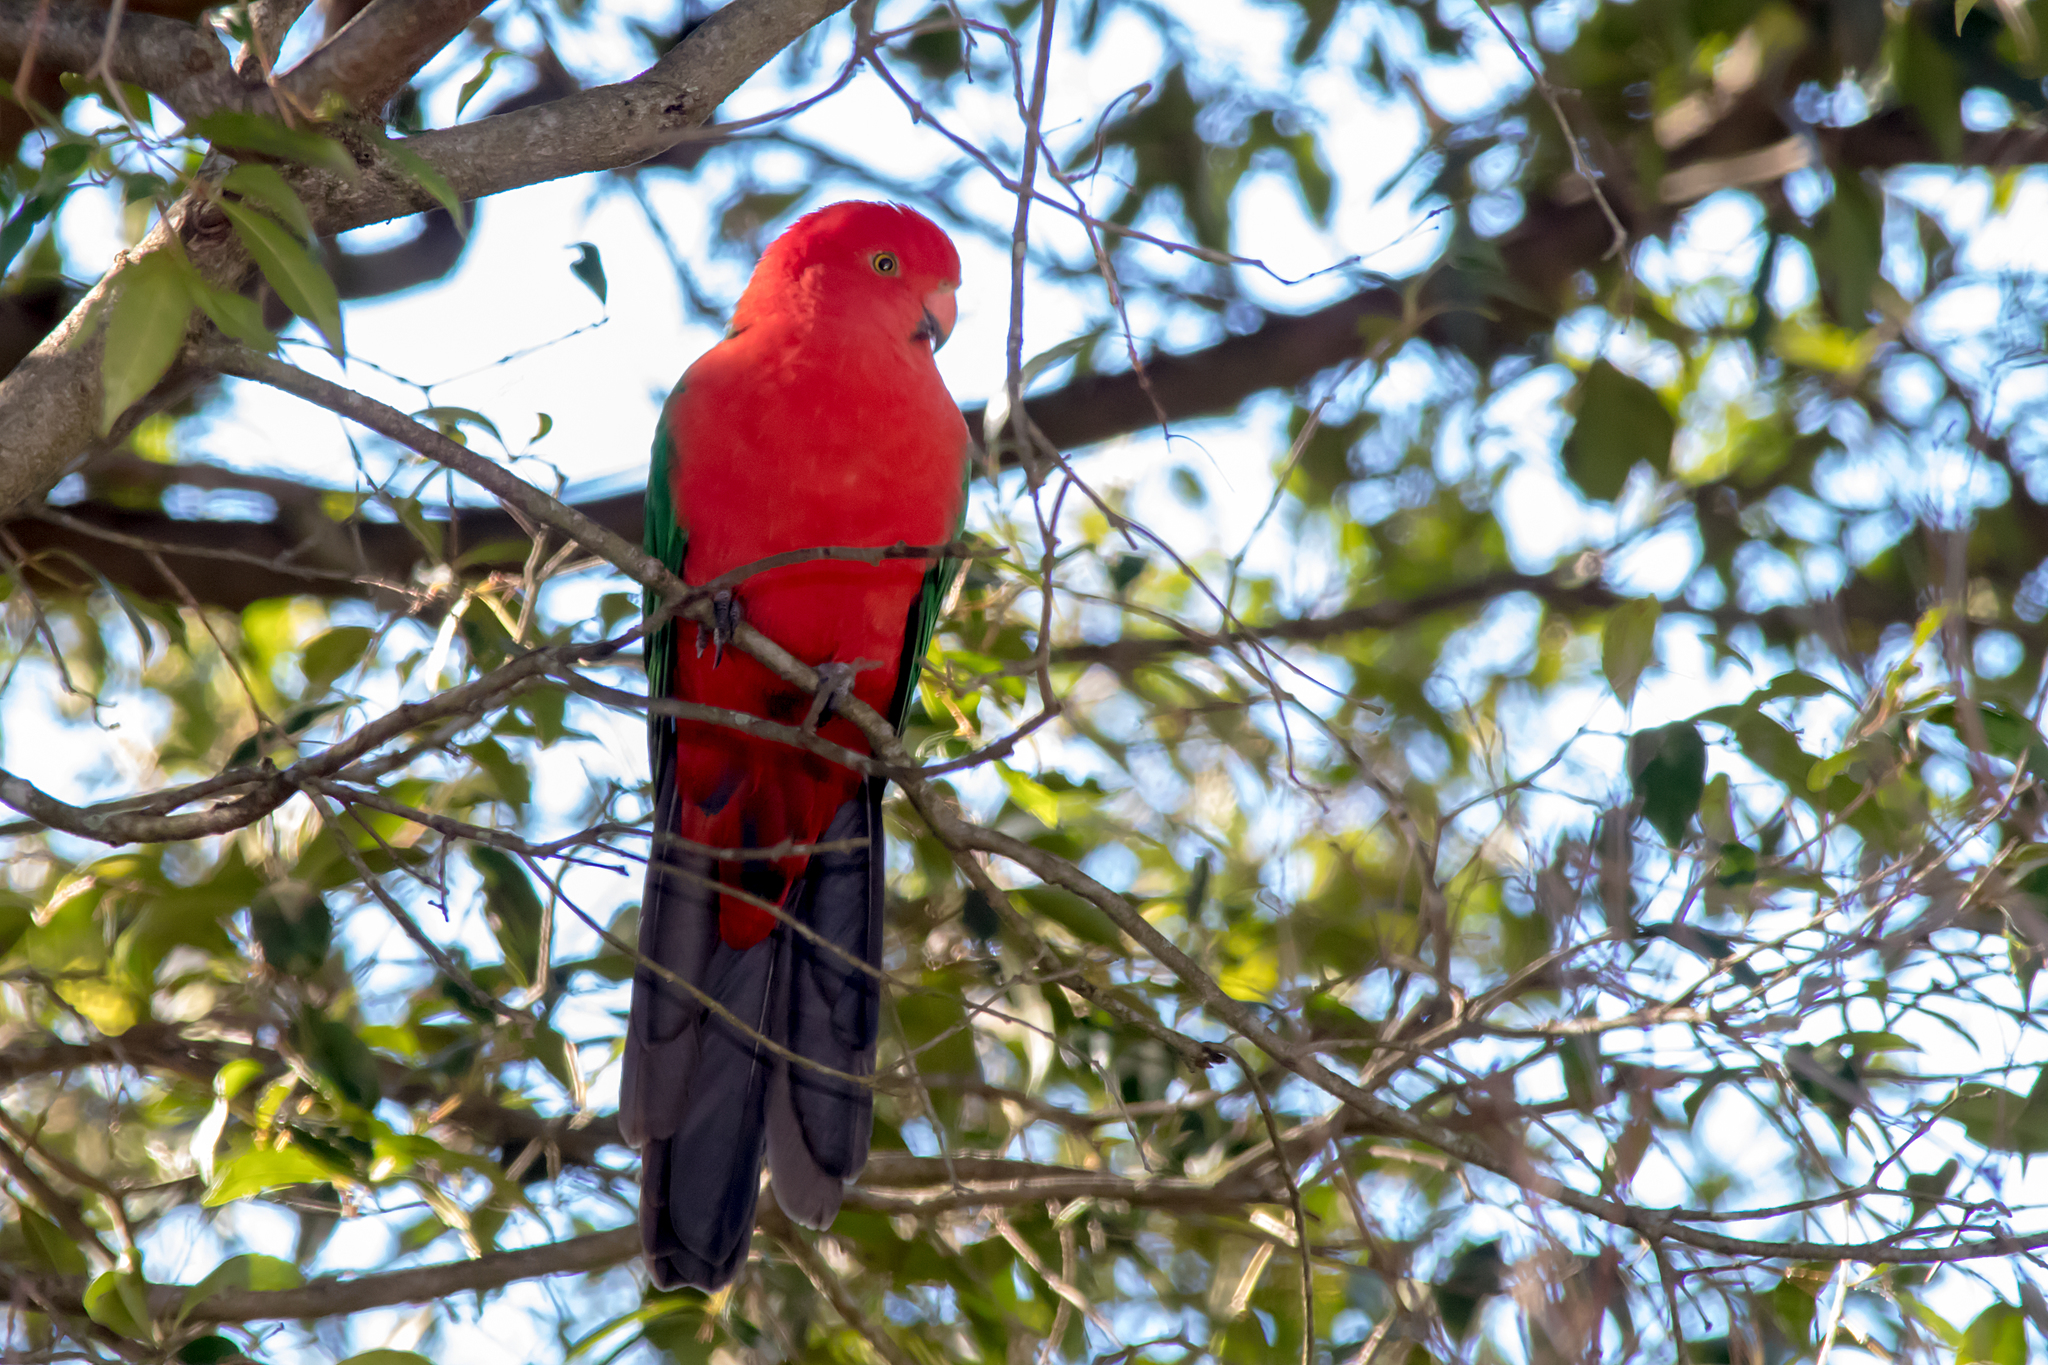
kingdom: Animalia
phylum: Chordata
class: Aves
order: Psittaciformes
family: Psittacidae
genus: Alisterus
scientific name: Alisterus scapularis
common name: Australian king parrot
